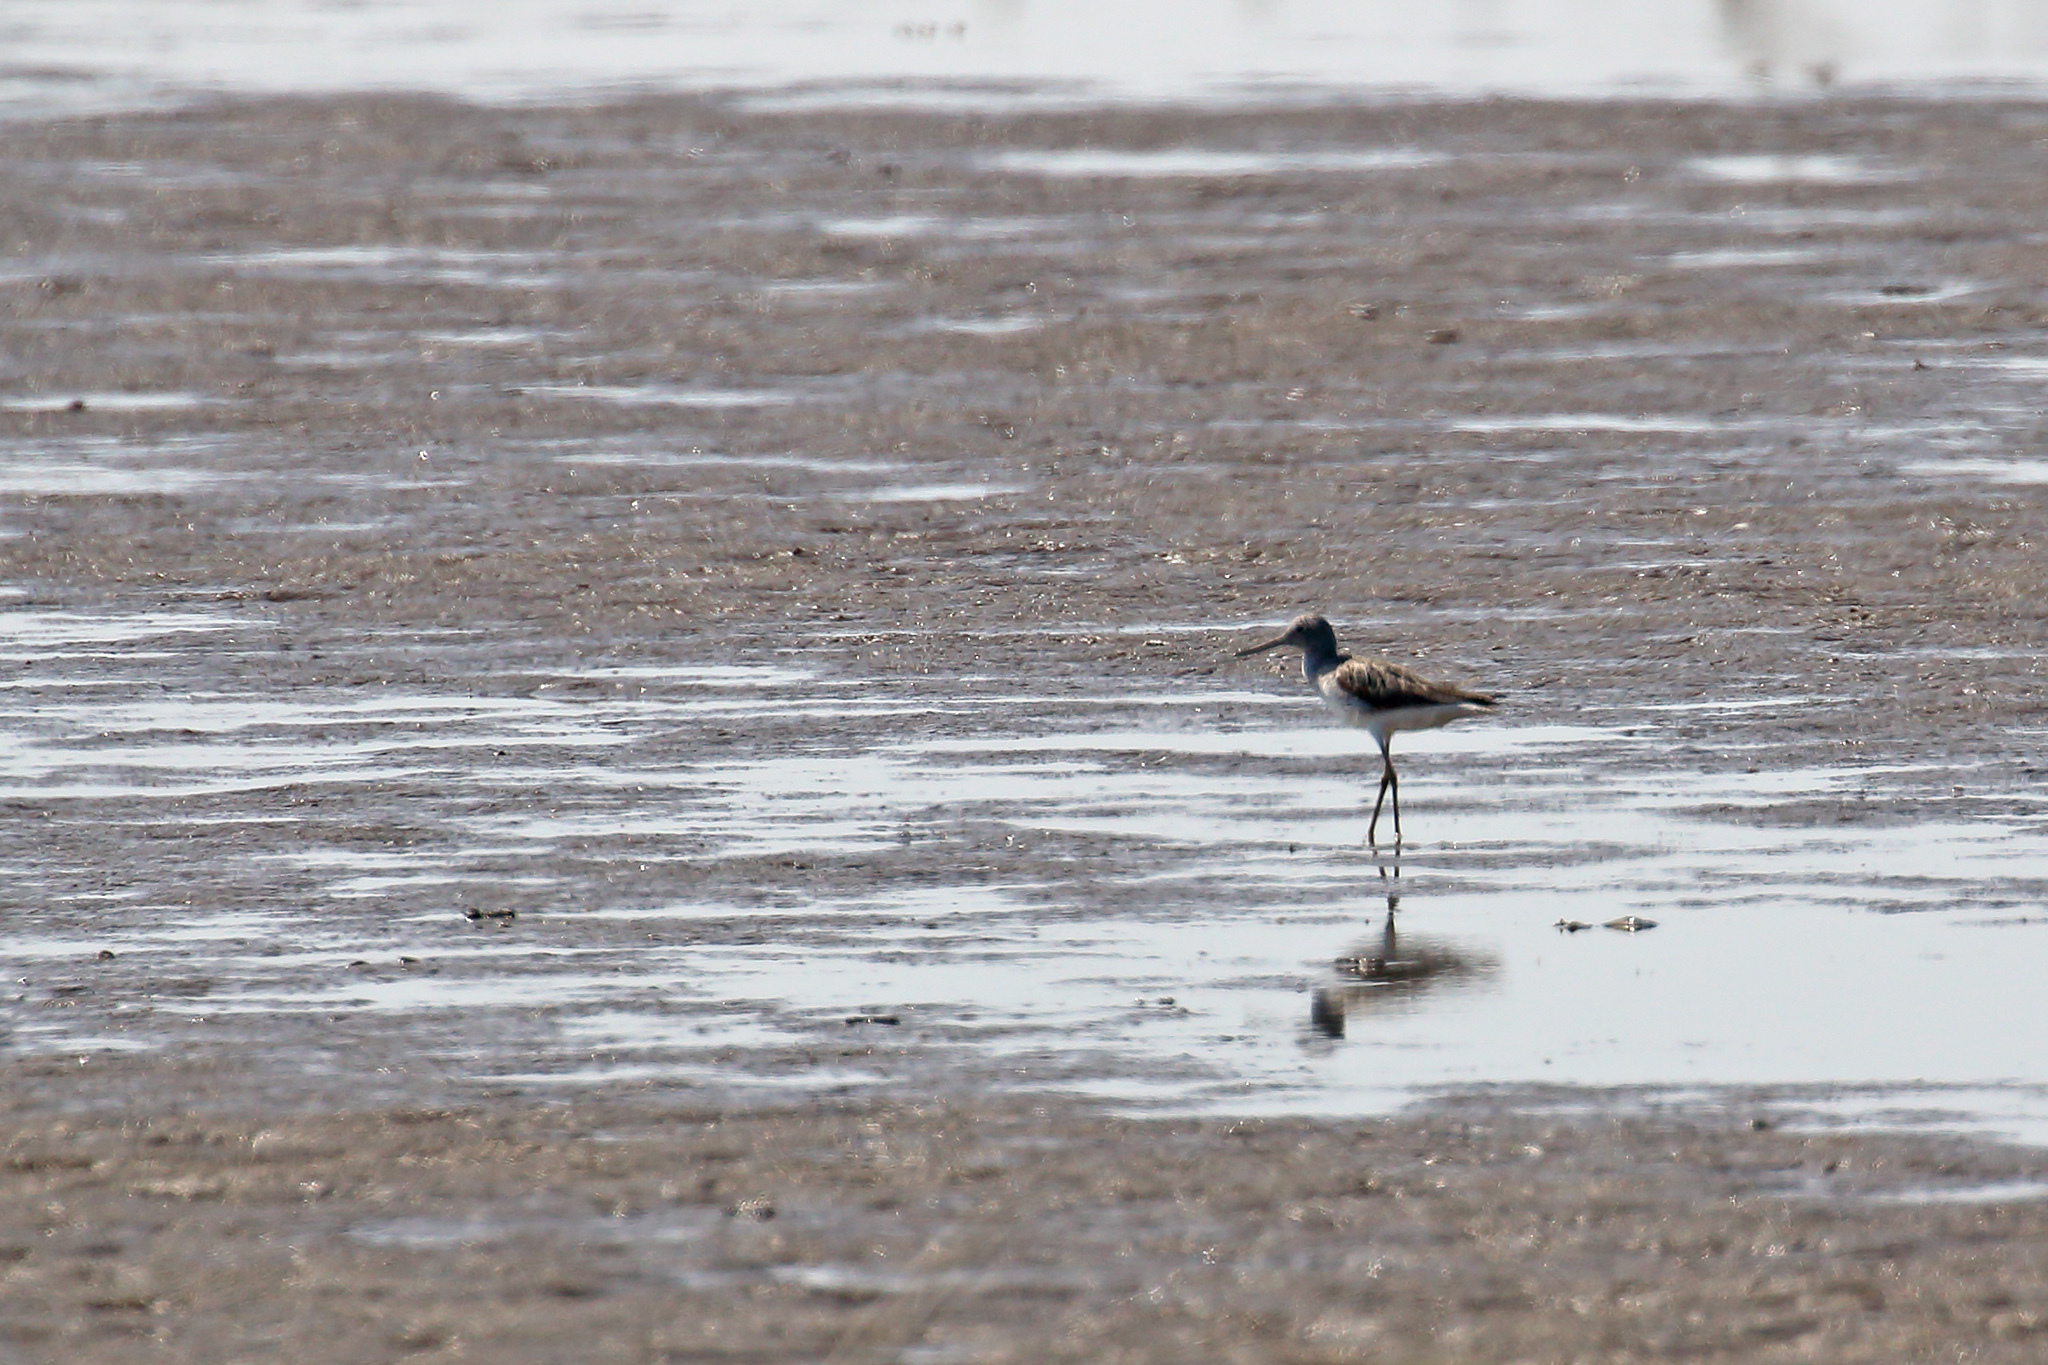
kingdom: Animalia
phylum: Chordata
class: Aves
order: Charadriiformes
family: Scolopacidae
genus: Tringa
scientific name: Tringa nebularia
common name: Common greenshank
